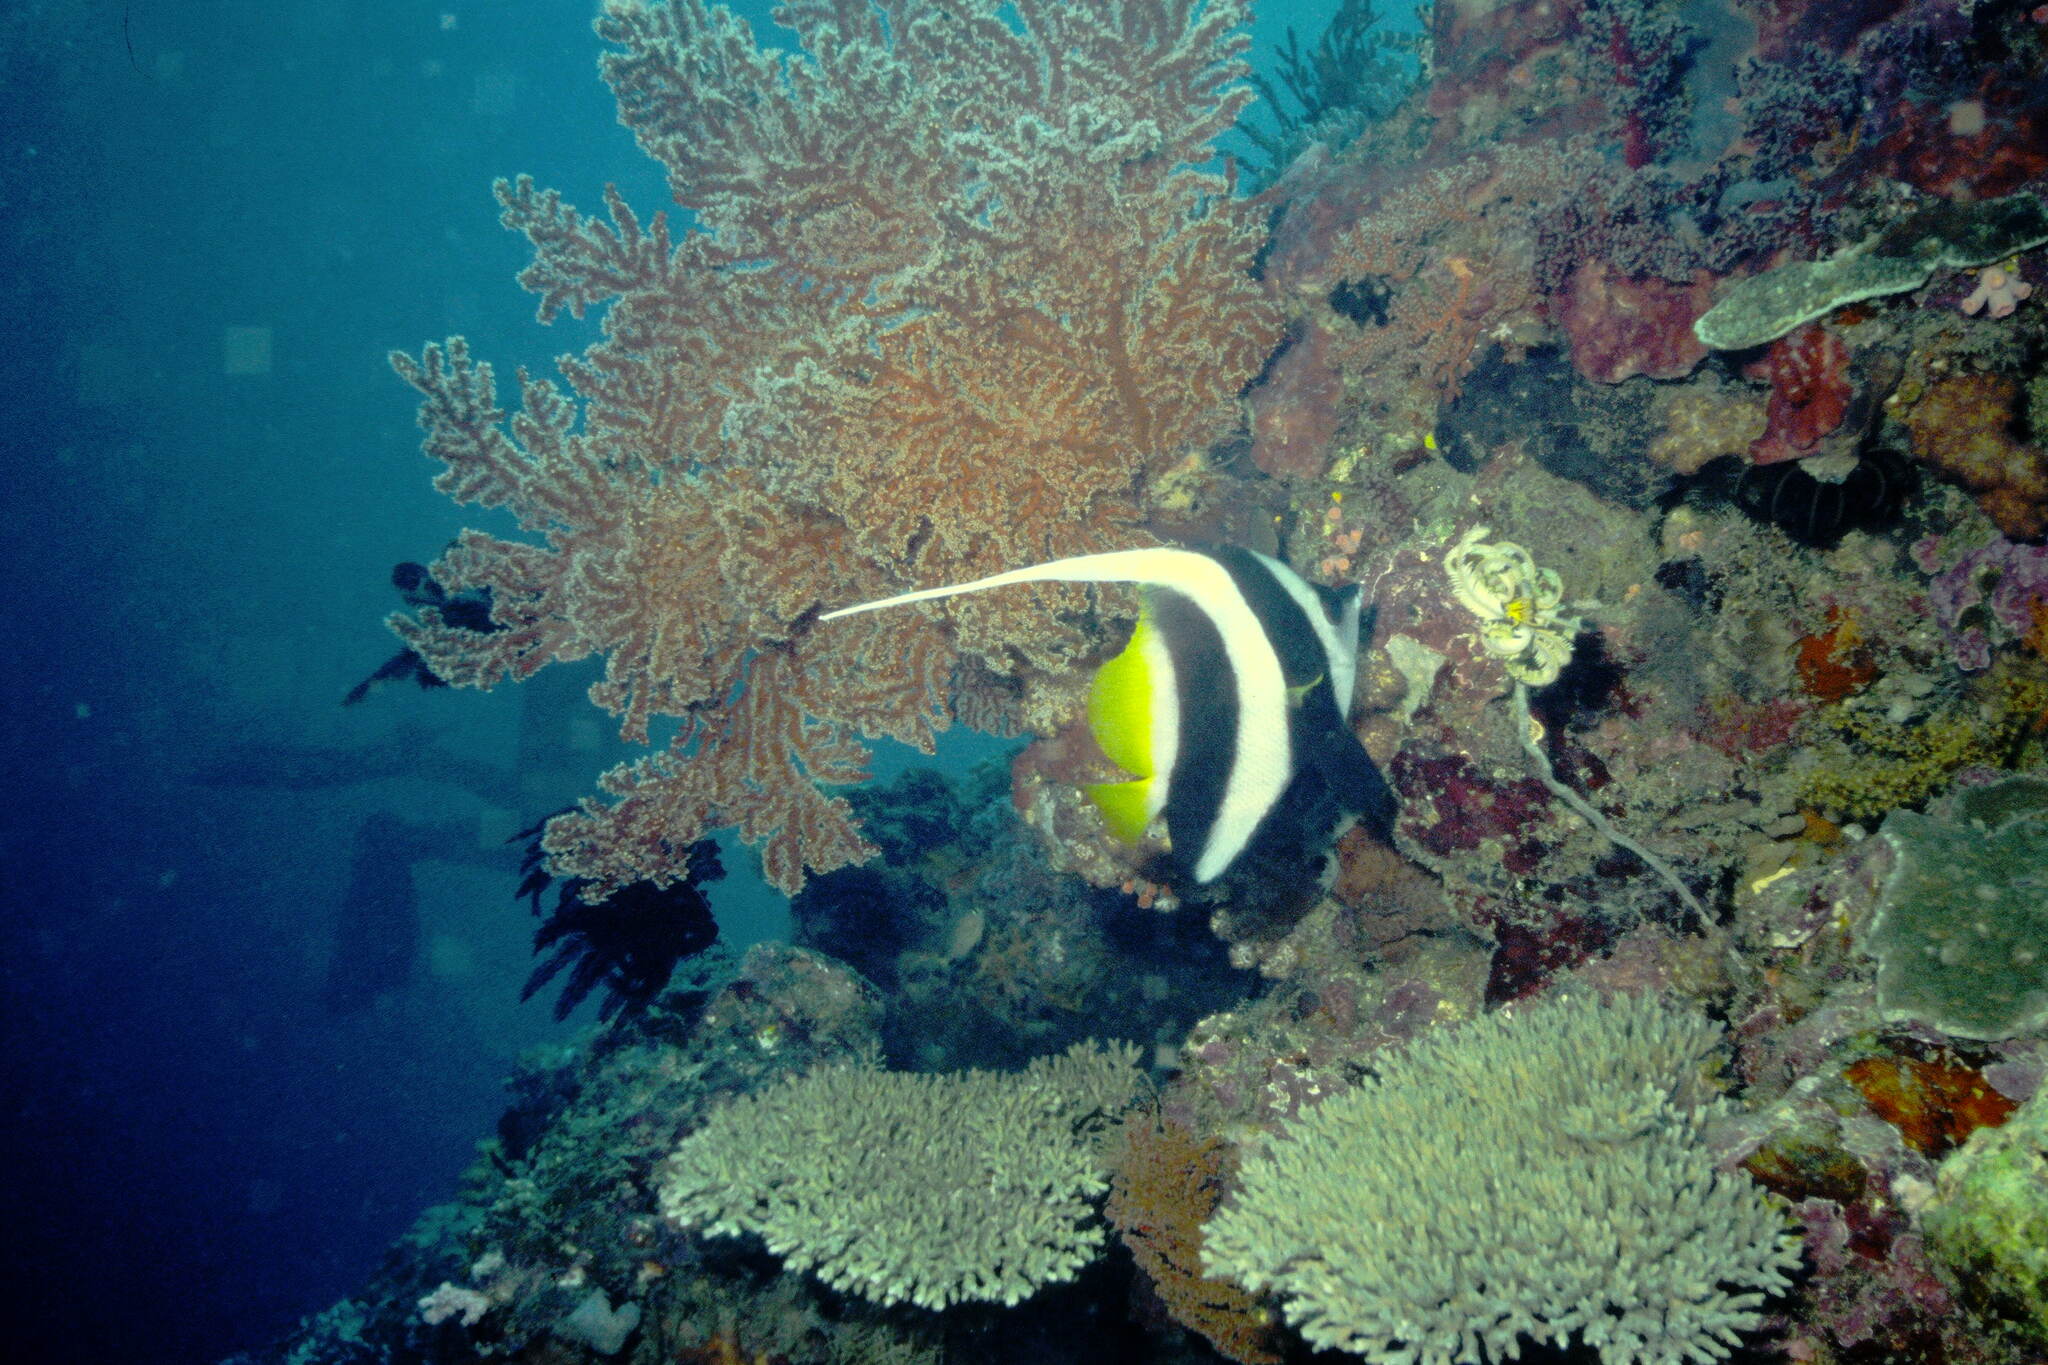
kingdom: Animalia
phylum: Chordata
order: Perciformes
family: Chaetodontidae
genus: Heniochus
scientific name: Heniochus acuminatus
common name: Pennant coralfish
